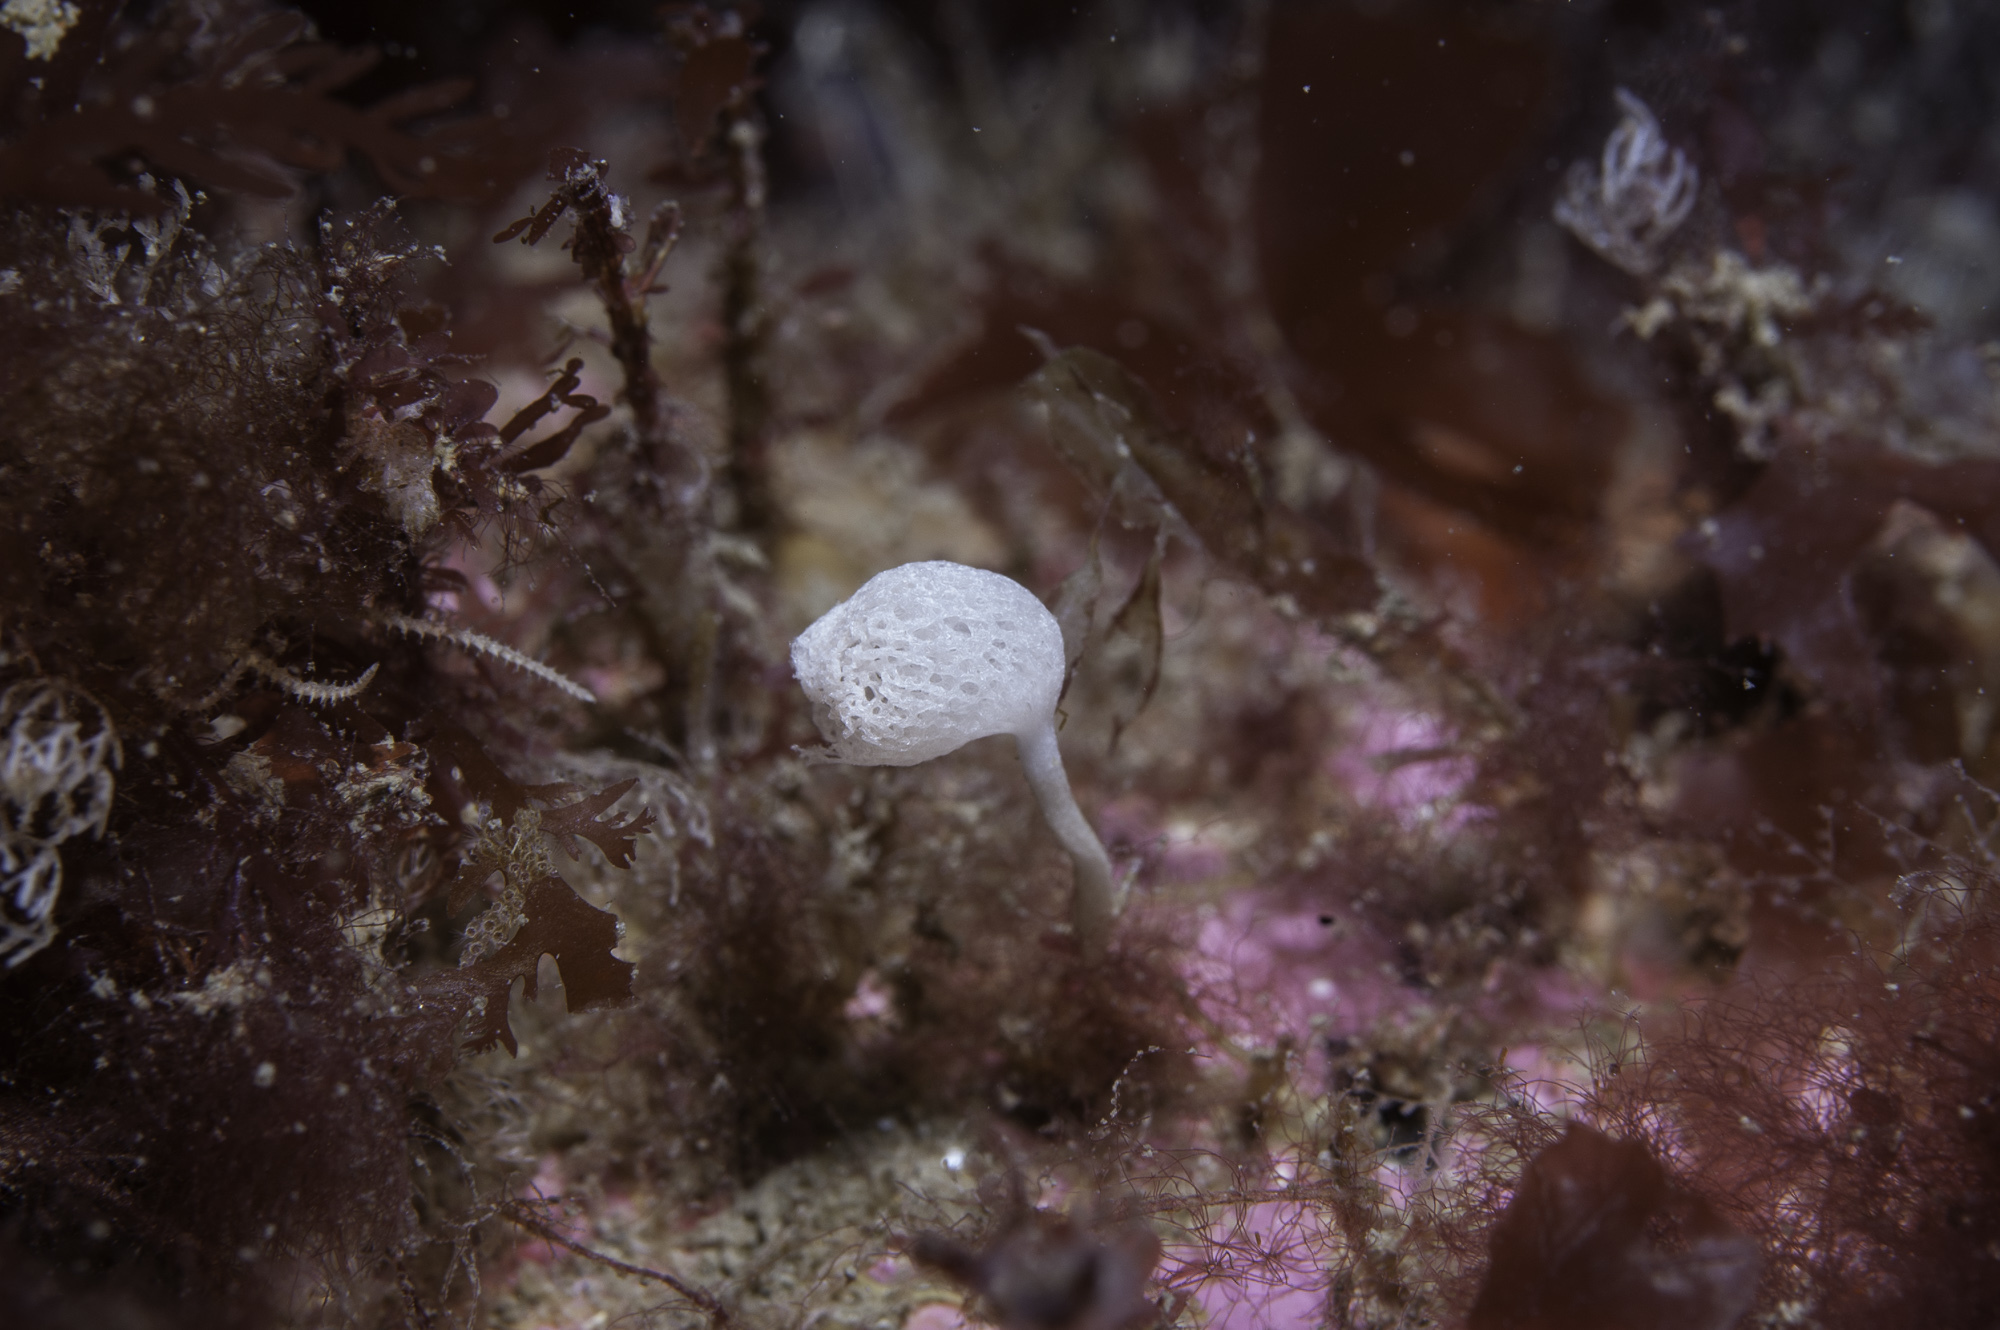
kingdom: Animalia
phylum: Porifera
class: Calcarea
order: Clathrinida
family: Clathrinidae
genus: Clathrina
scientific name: Clathrina lacunosa
